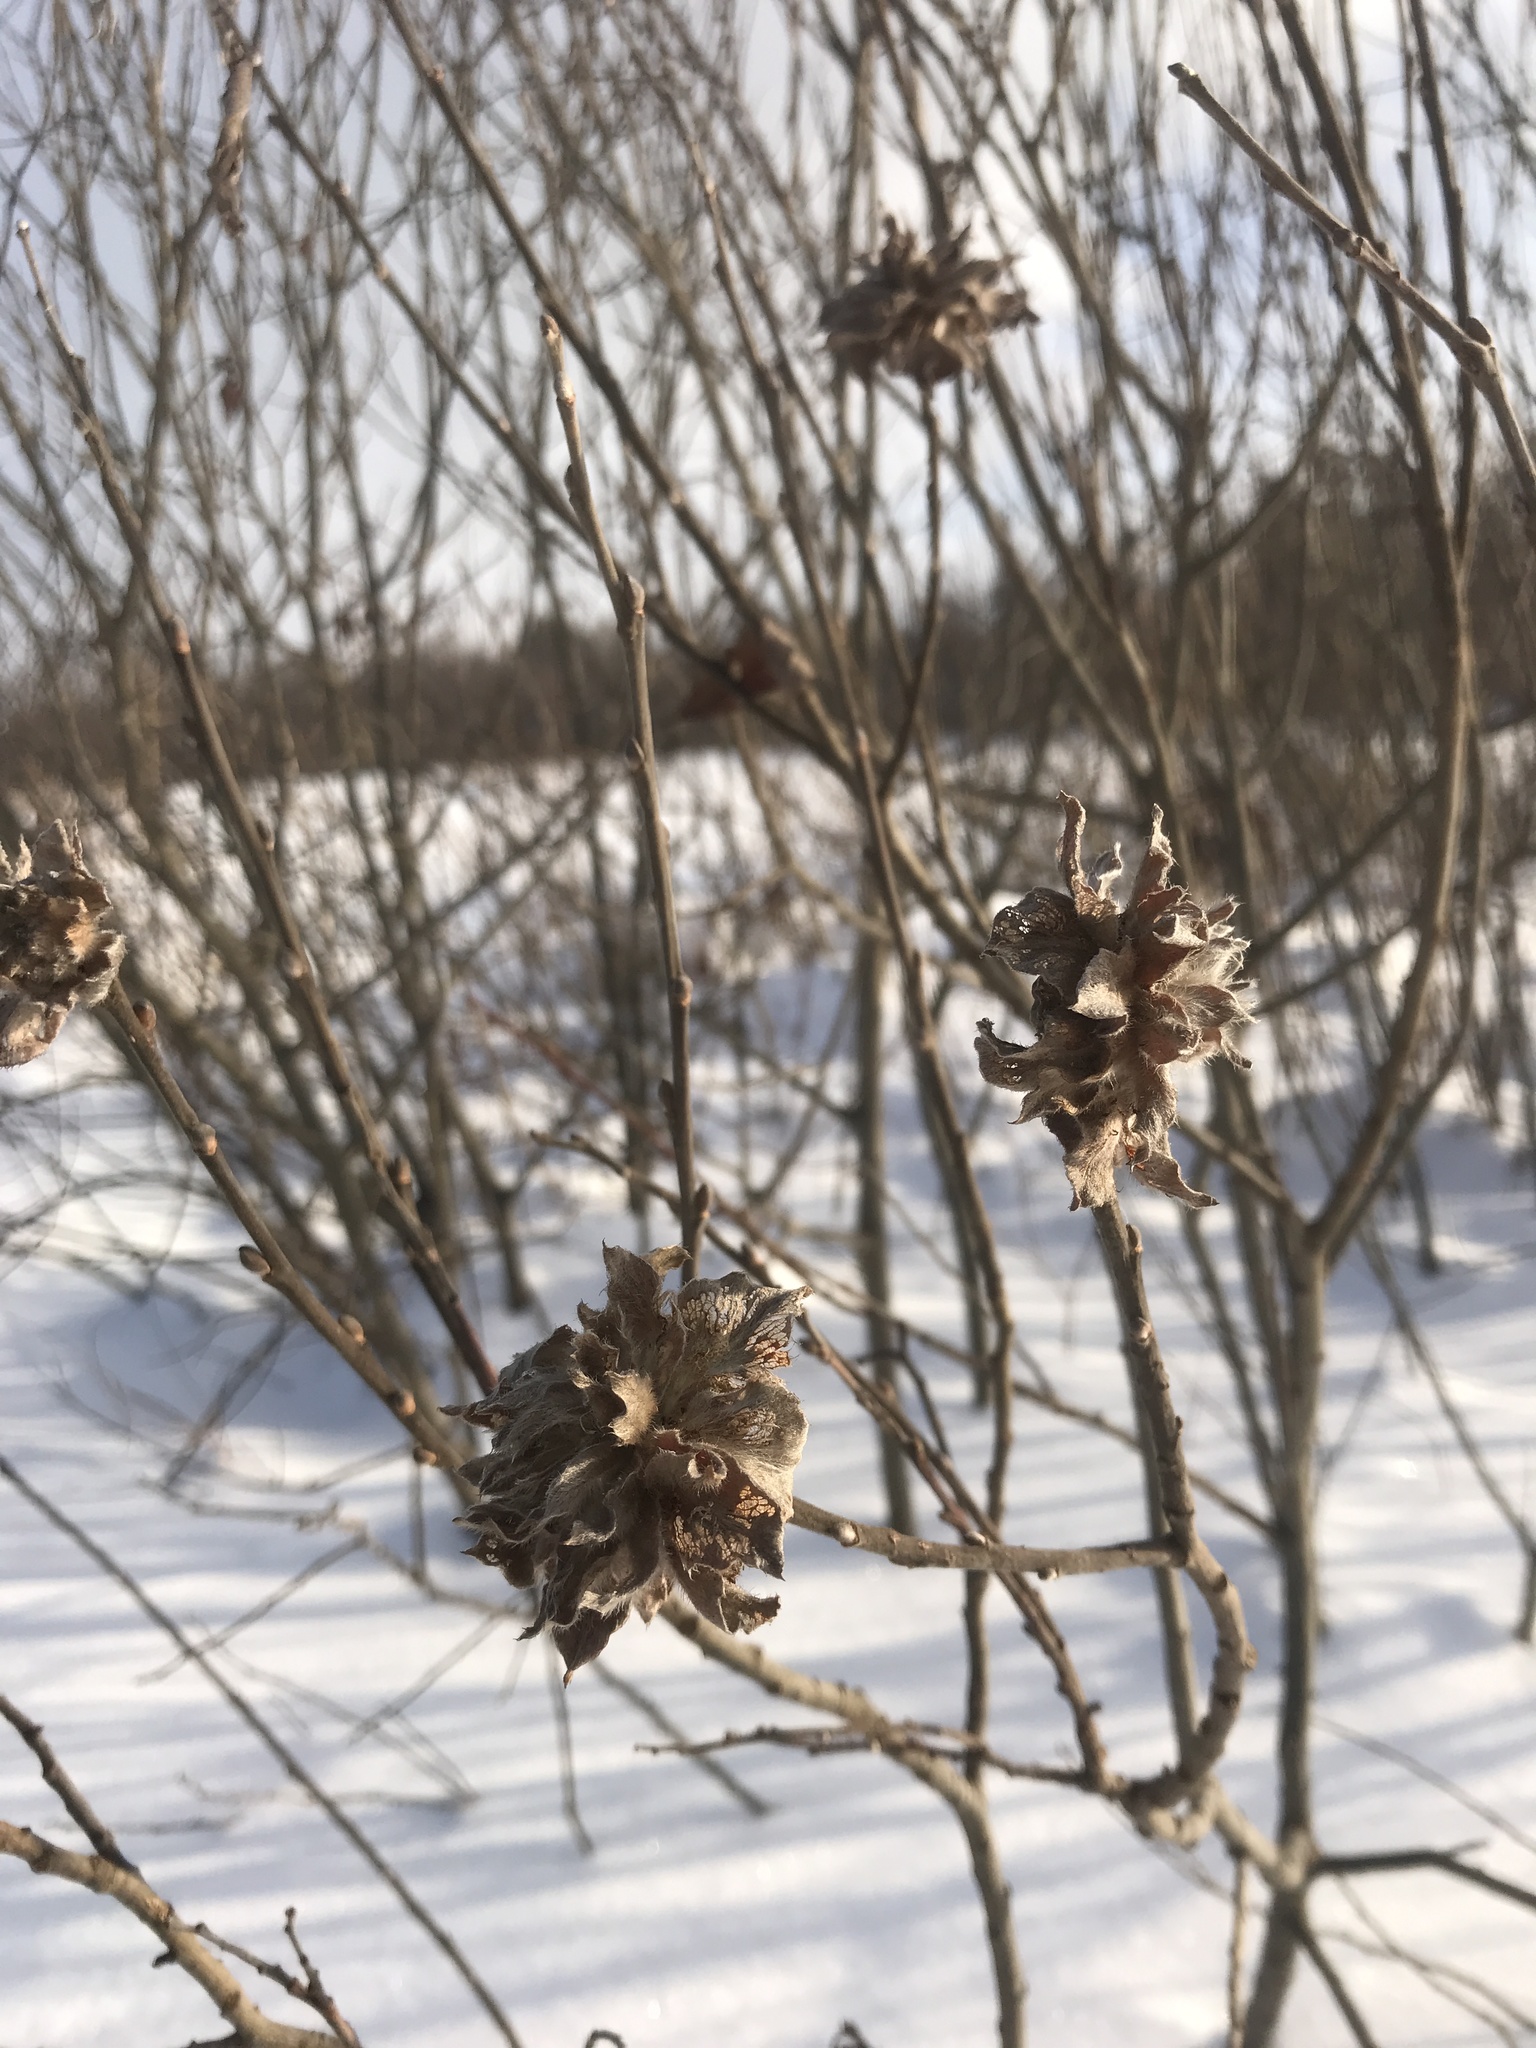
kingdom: Animalia
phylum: Arthropoda
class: Insecta
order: Diptera
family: Cecidomyiidae
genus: Rabdophaga
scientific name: Rabdophaga rosaria
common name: Willow rose gall midge
